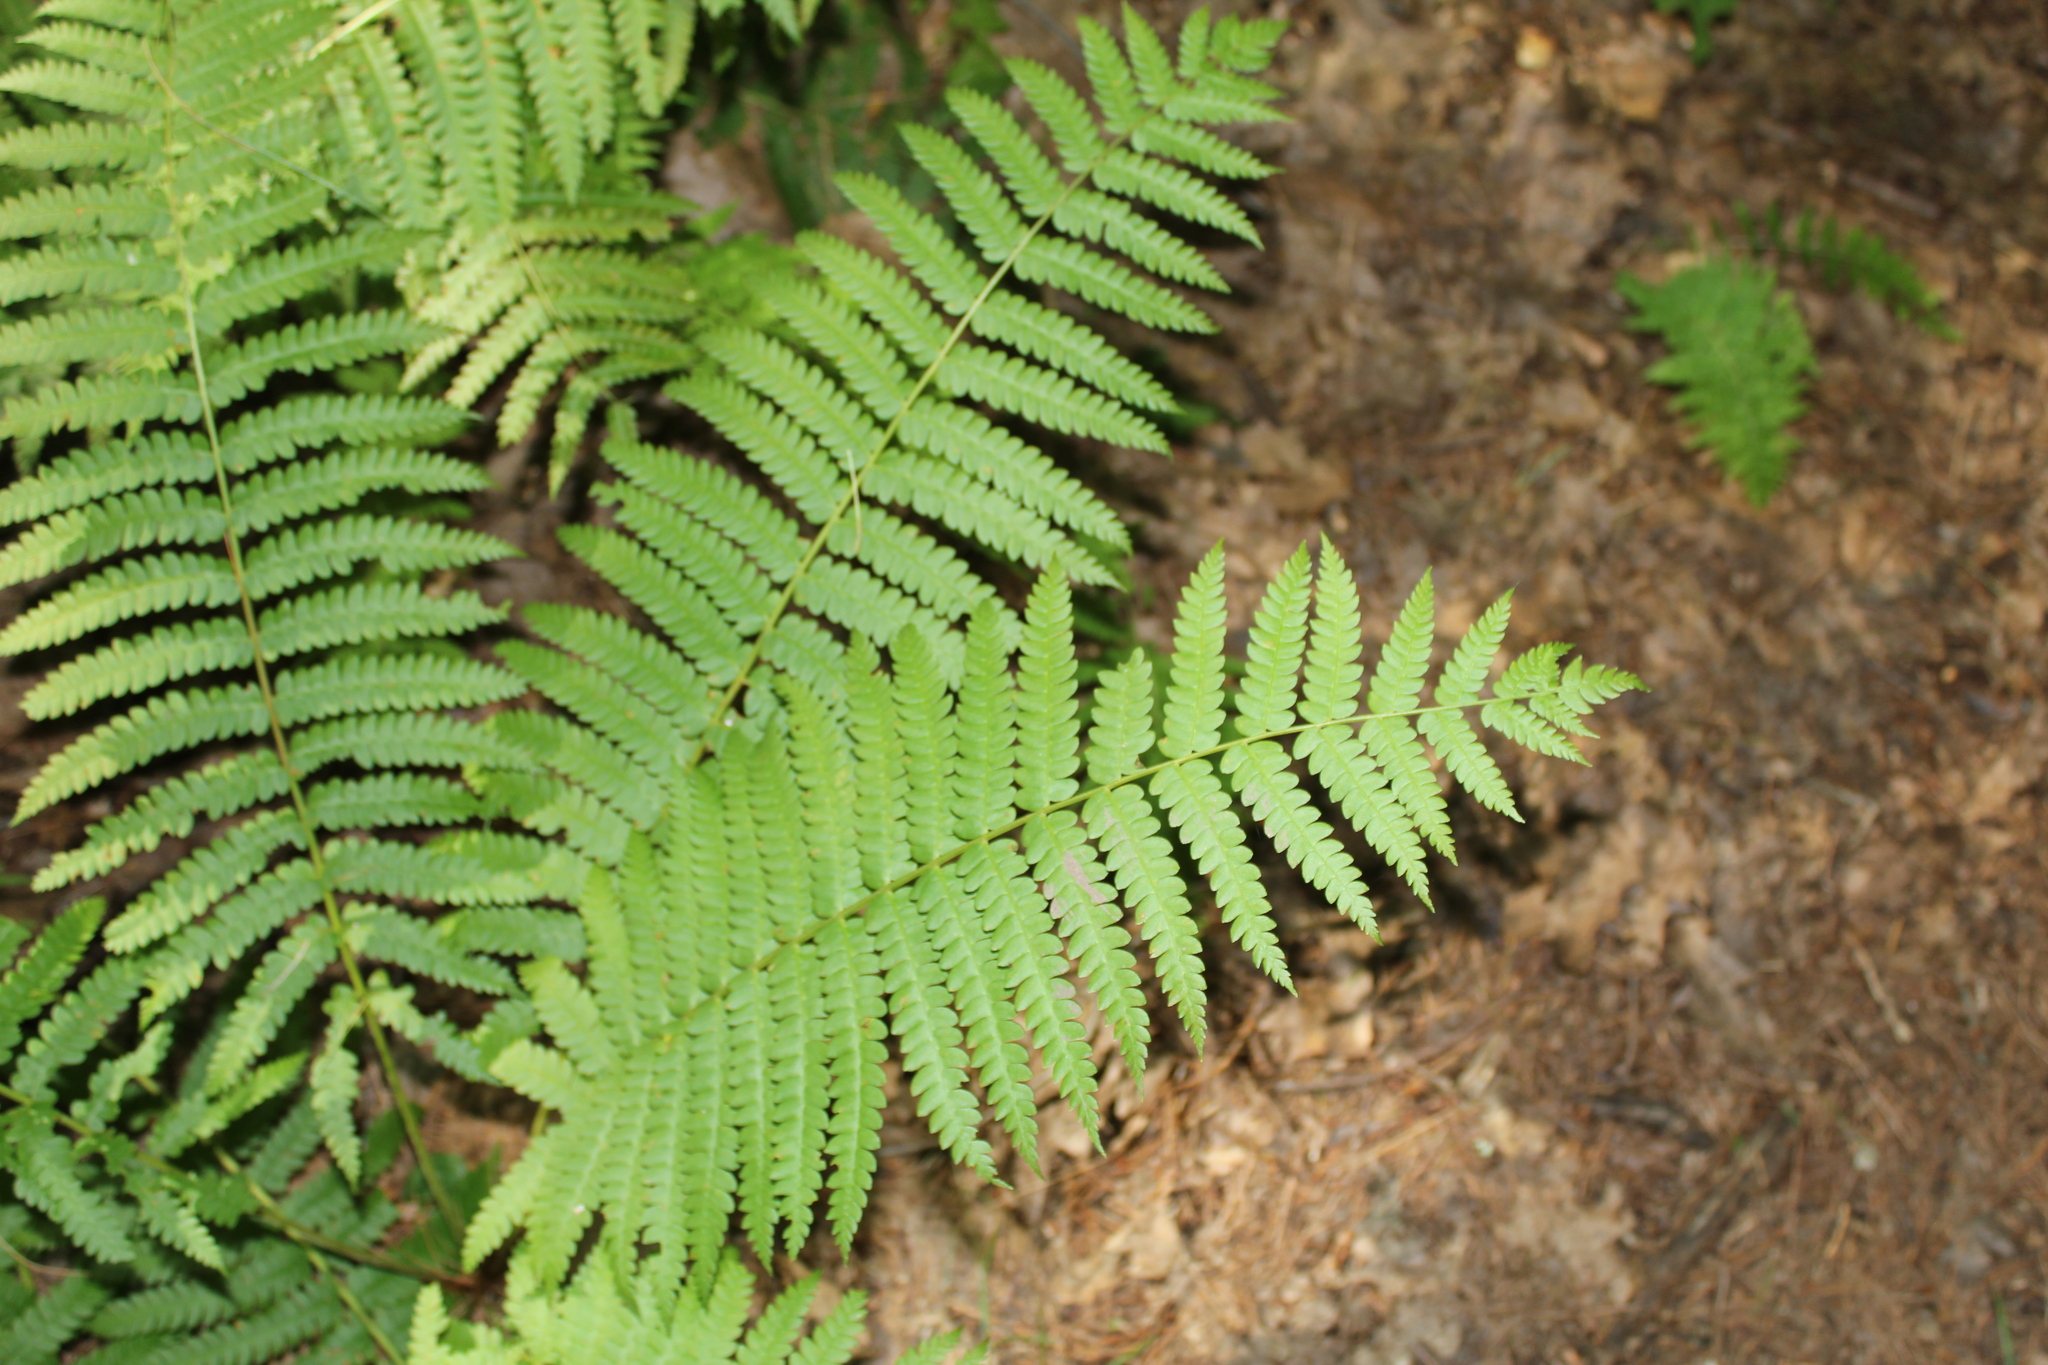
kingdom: Plantae
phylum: Tracheophyta
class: Polypodiopsida
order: Osmundales
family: Osmundaceae
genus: Osmundastrum
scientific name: Osmundastrum cinnamomeum
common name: Cinnamon fern
